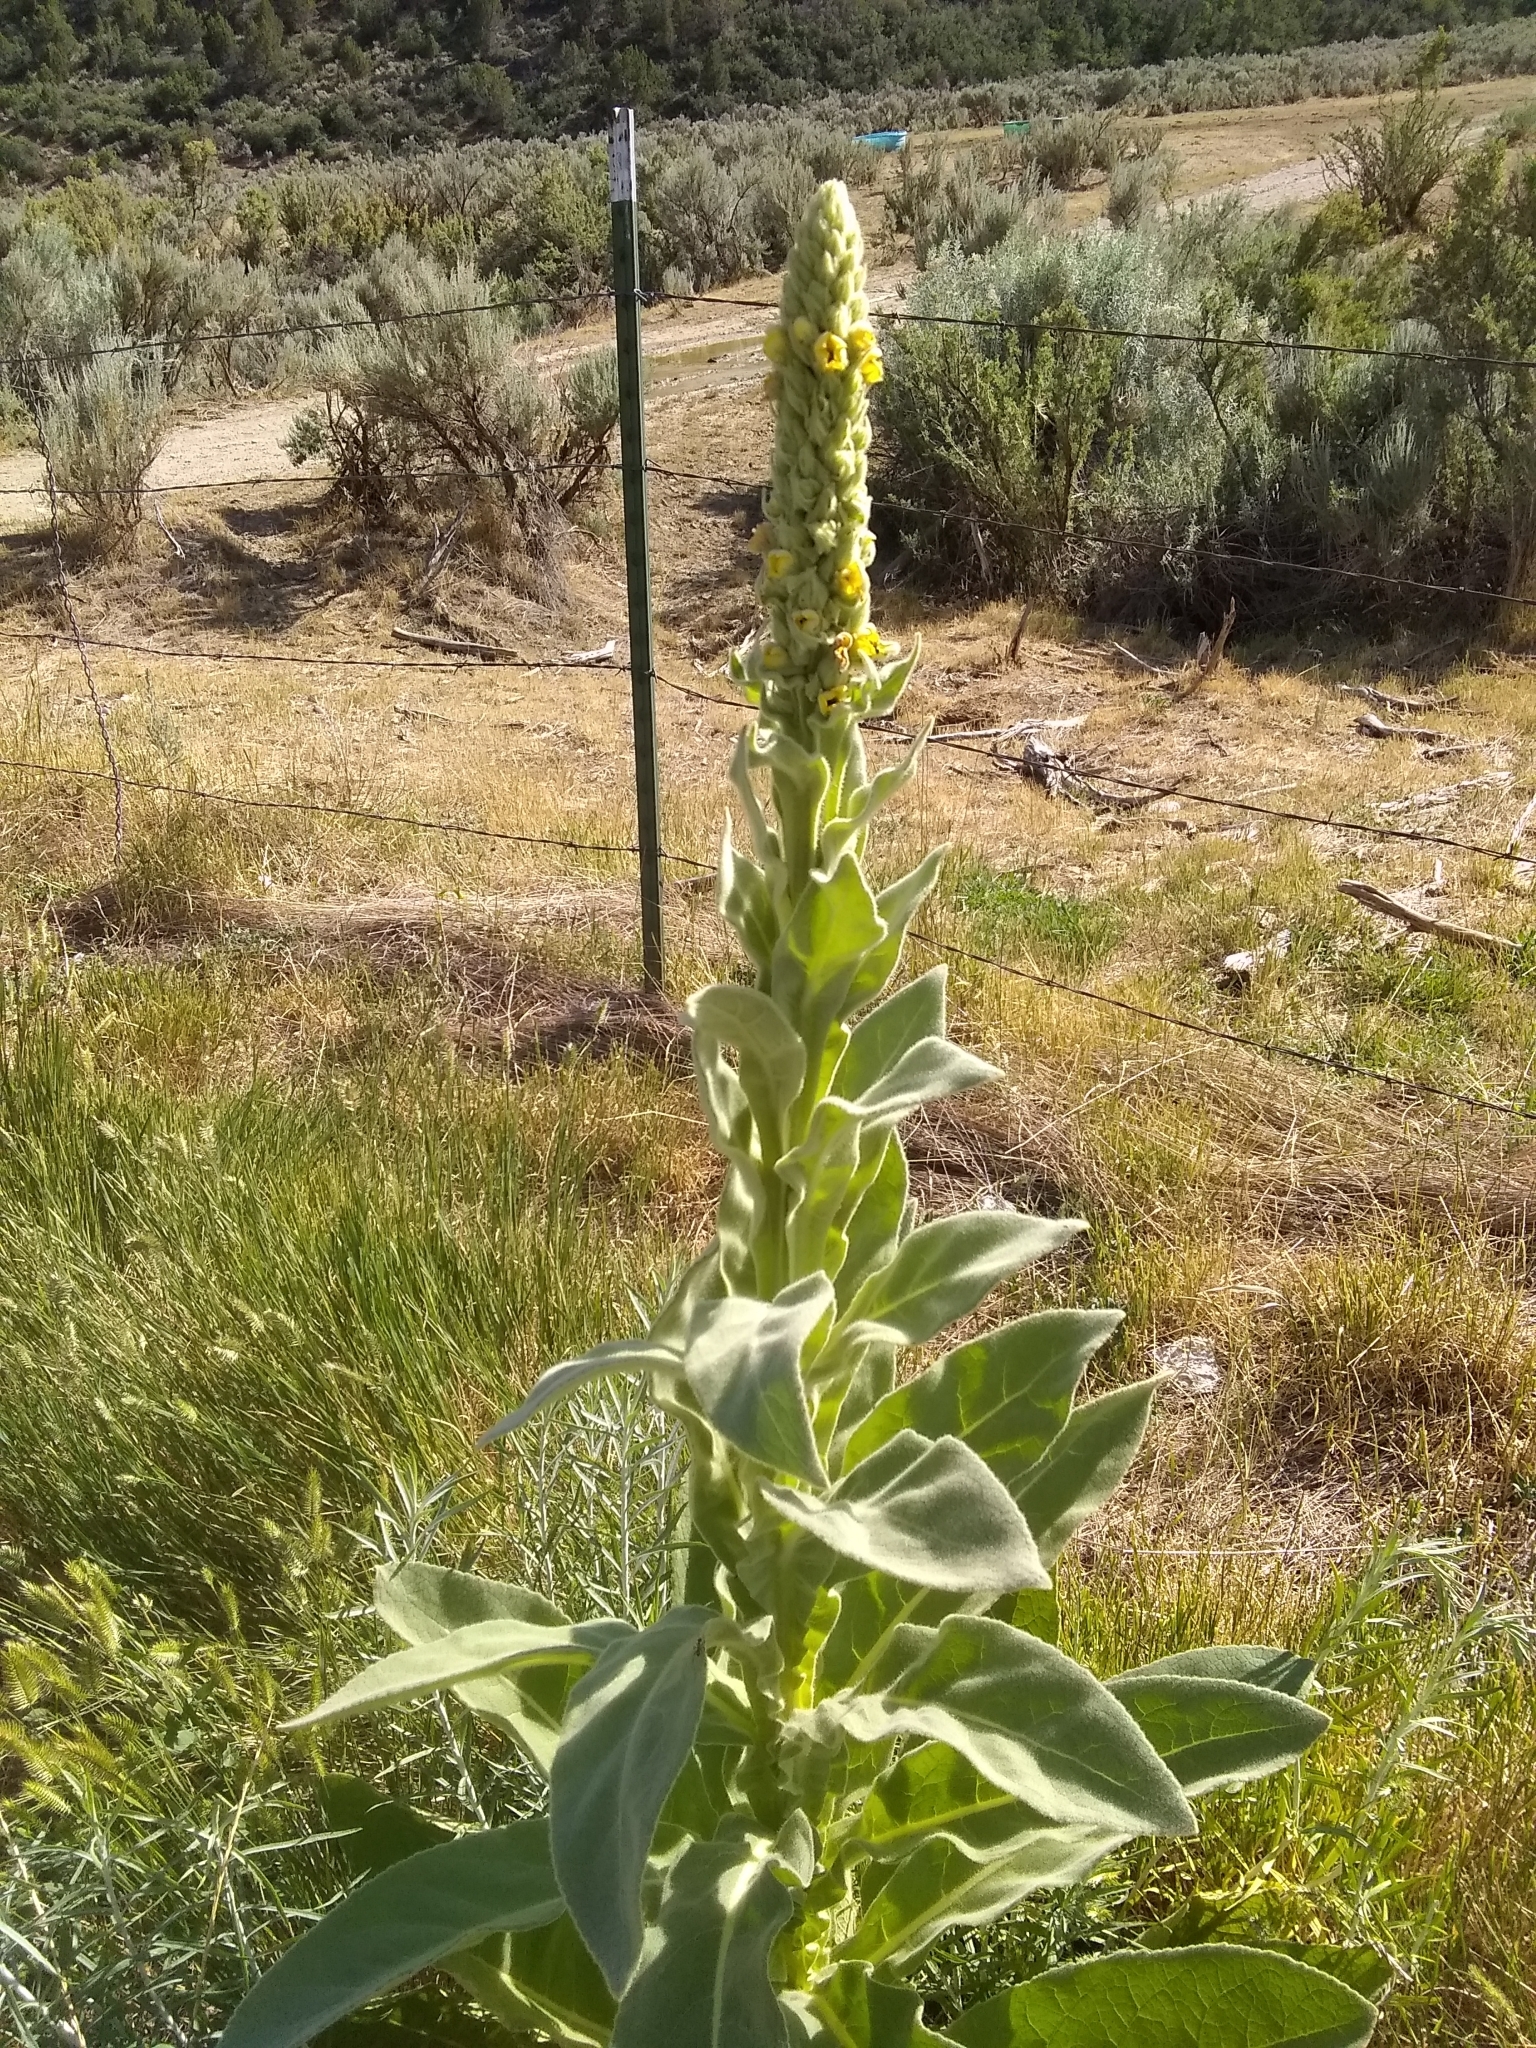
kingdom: Plantae
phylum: Tracheophyta
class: Magnoliopsida
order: Lamiales
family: Scrophulariaceae
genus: Verbascum
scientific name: Verbascum thapsus
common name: Common mullein
